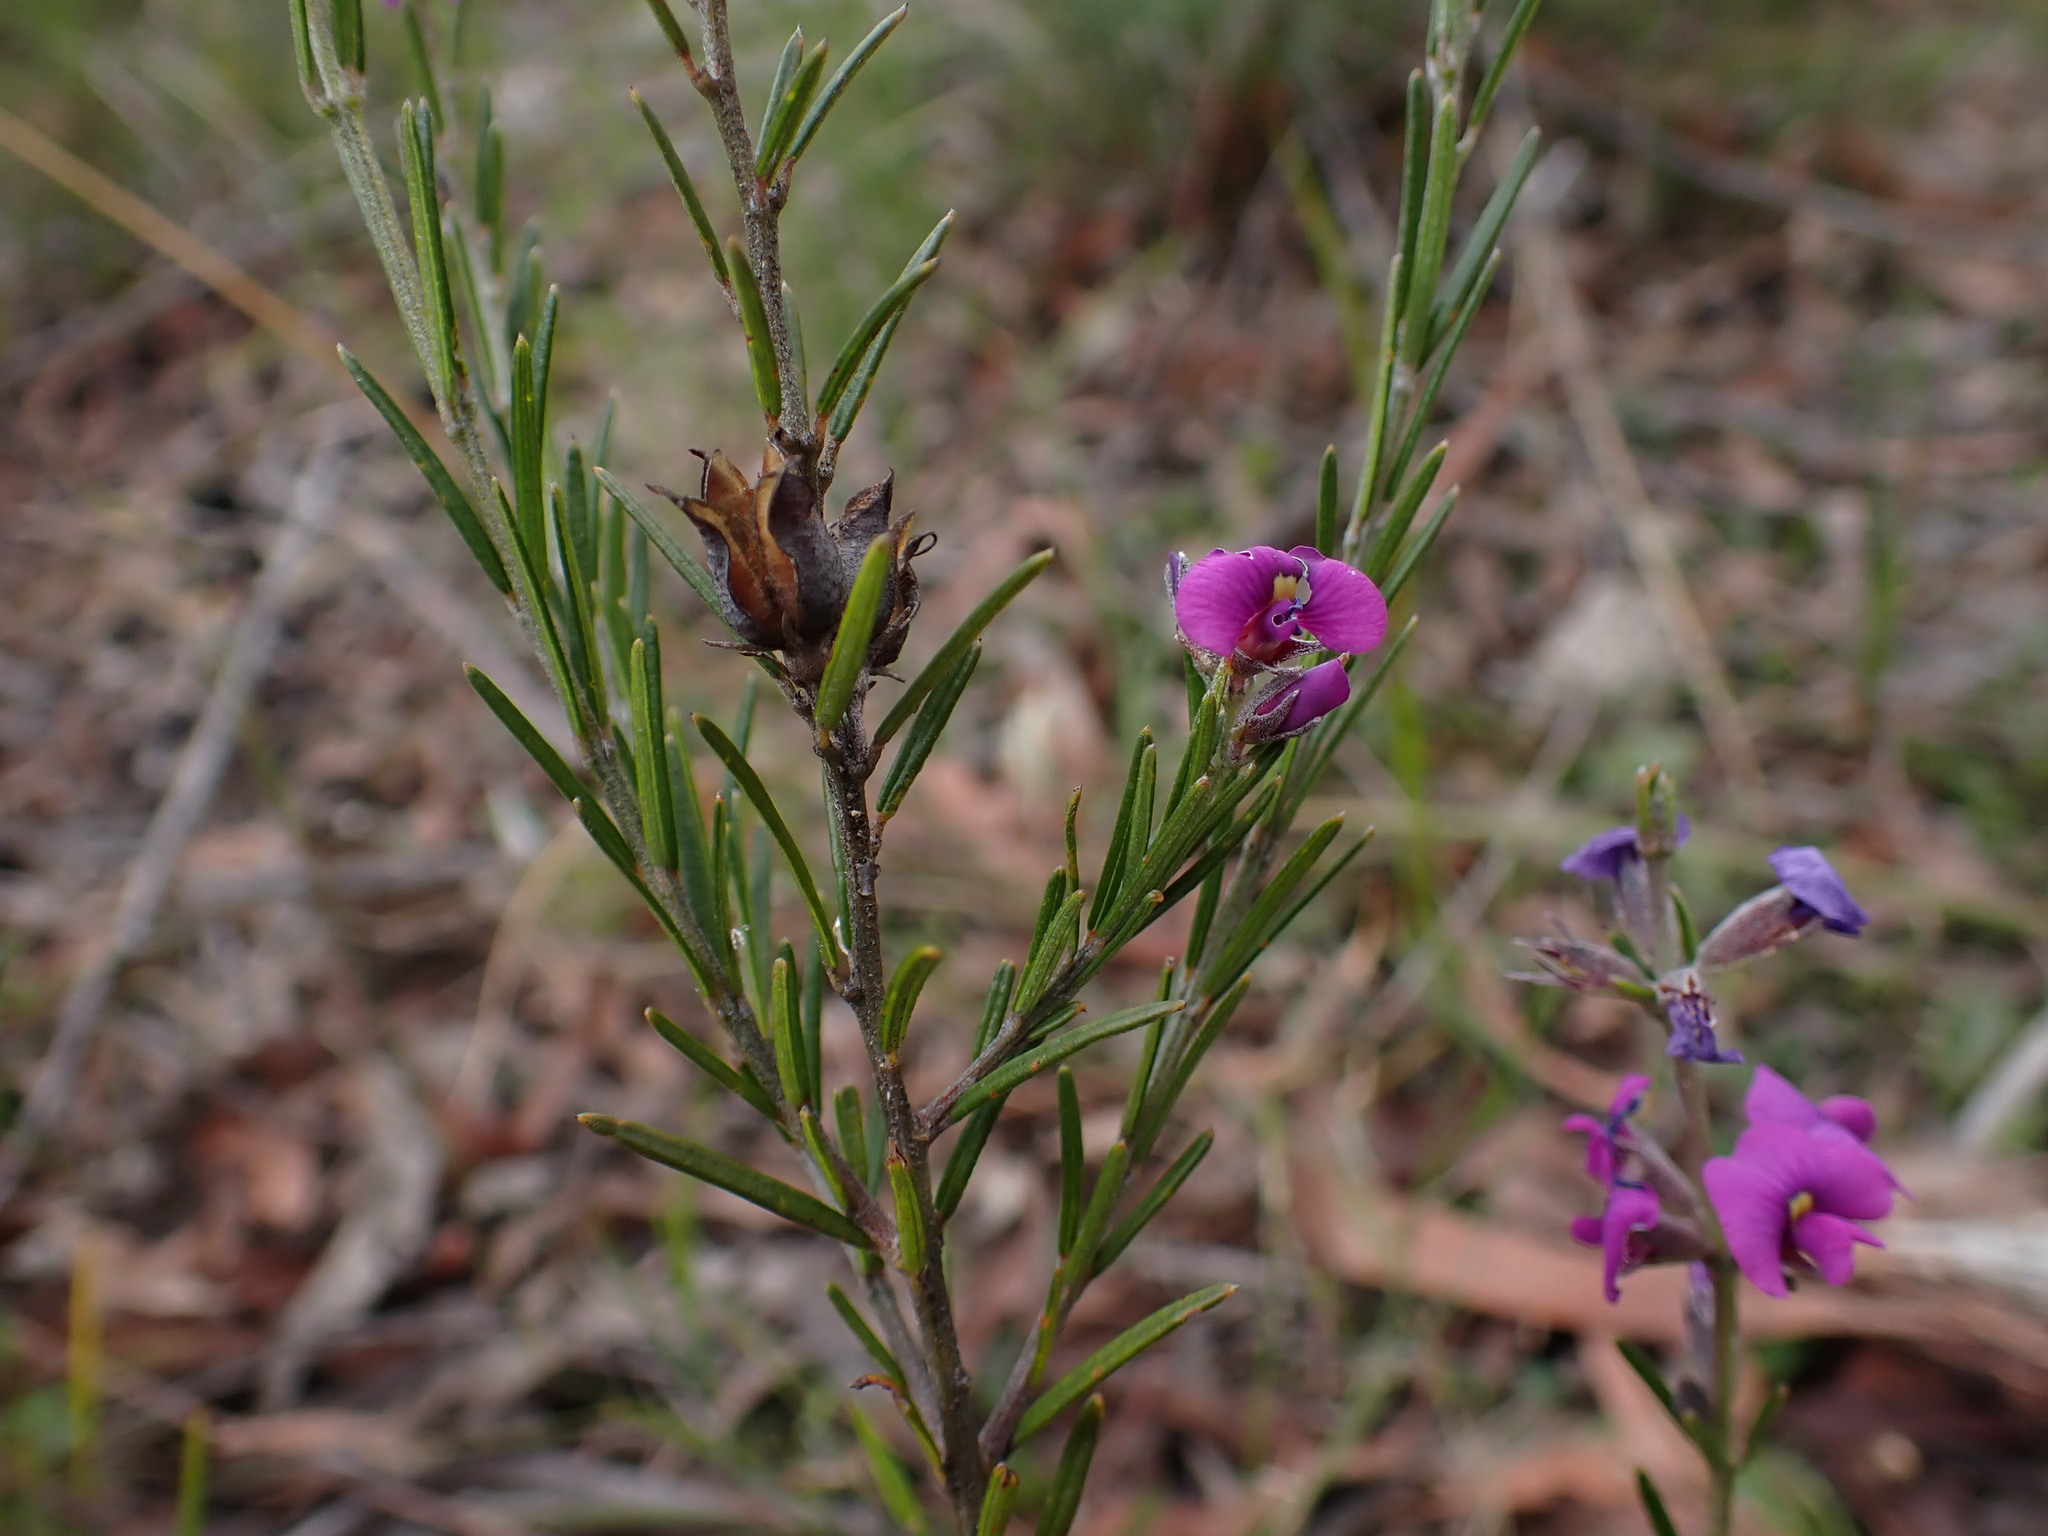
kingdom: Plantae
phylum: Tracheophyta
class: Magnoliopsida
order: Fabales
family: Fabaceae
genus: Mirbelia
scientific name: Mirbelia speciosa
